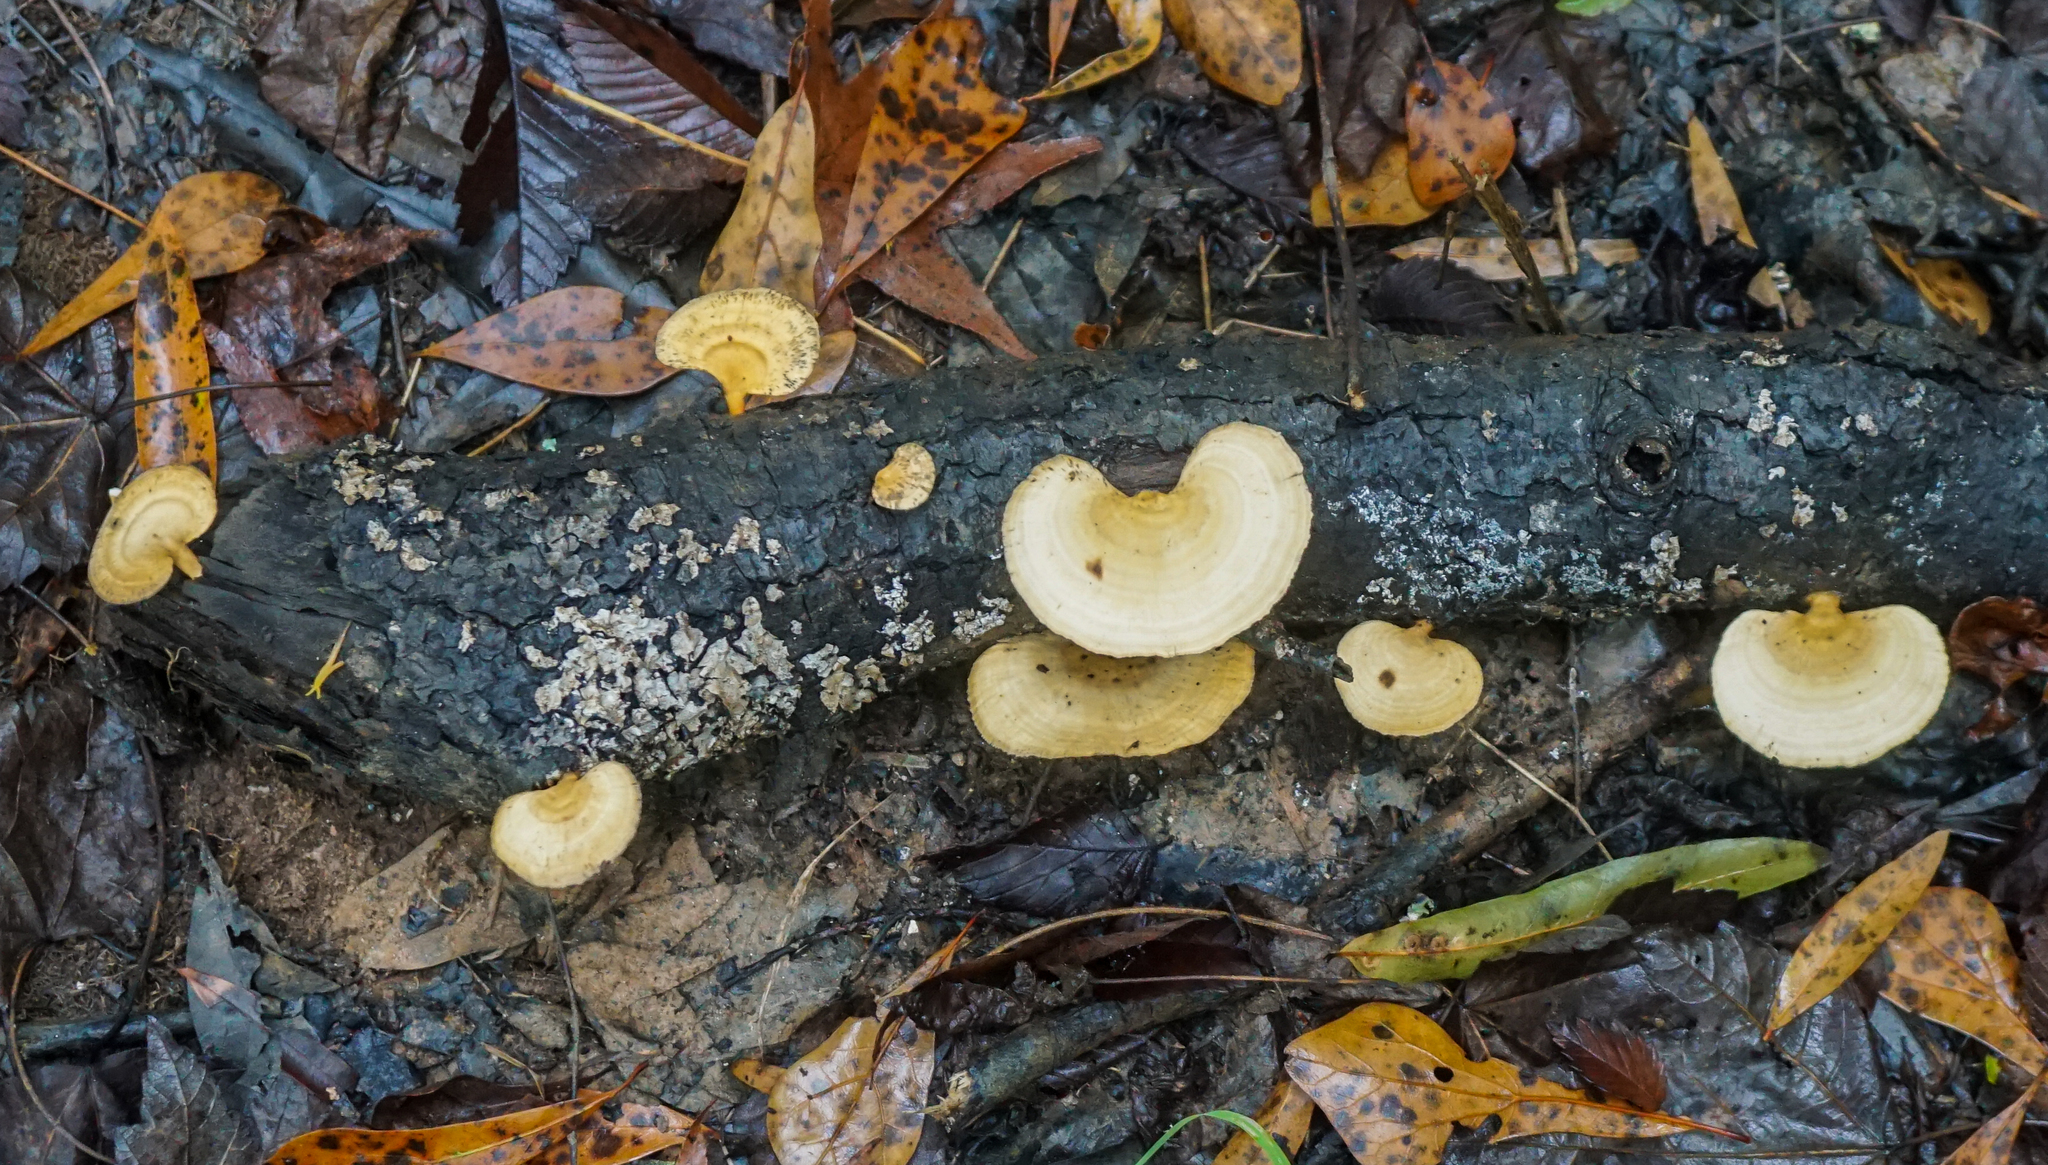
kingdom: Fungi
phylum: Basidiomycota
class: Agaricomycetes
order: Polyporales
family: Polyporaceae
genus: Microporellus
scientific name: Microporellus obovatus
